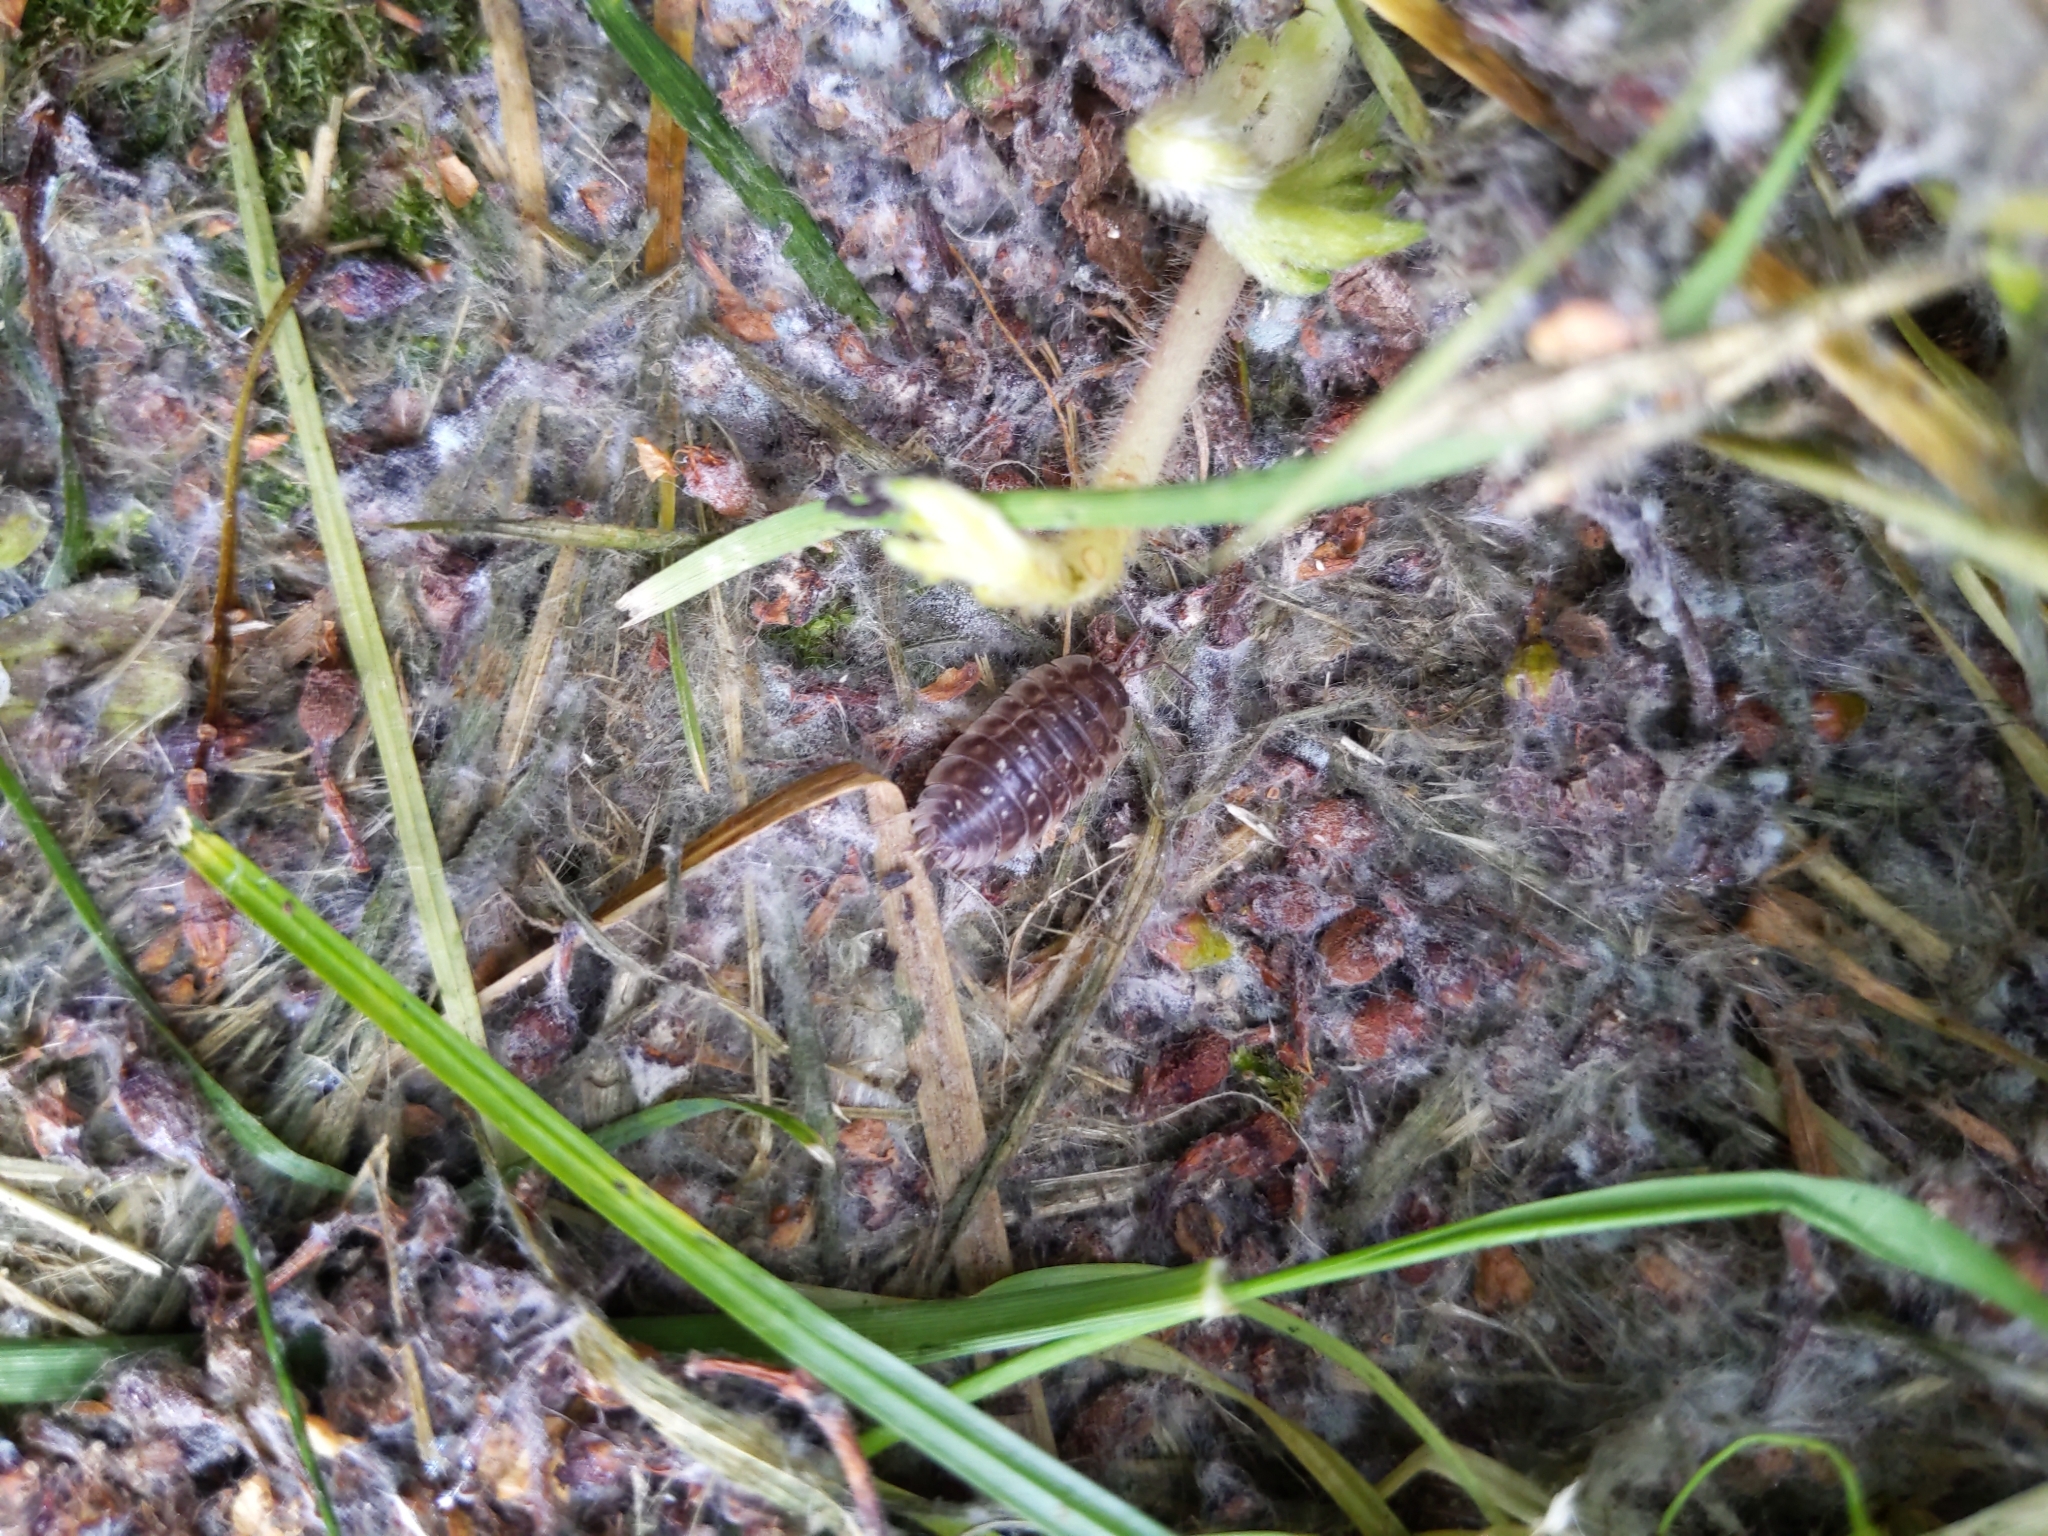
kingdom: Animalia
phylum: Arthropoda
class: Malacostraca
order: Isopoda
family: Oniscidae
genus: Oniscus
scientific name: Oniscus asellus
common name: Common shiny woodlouse
